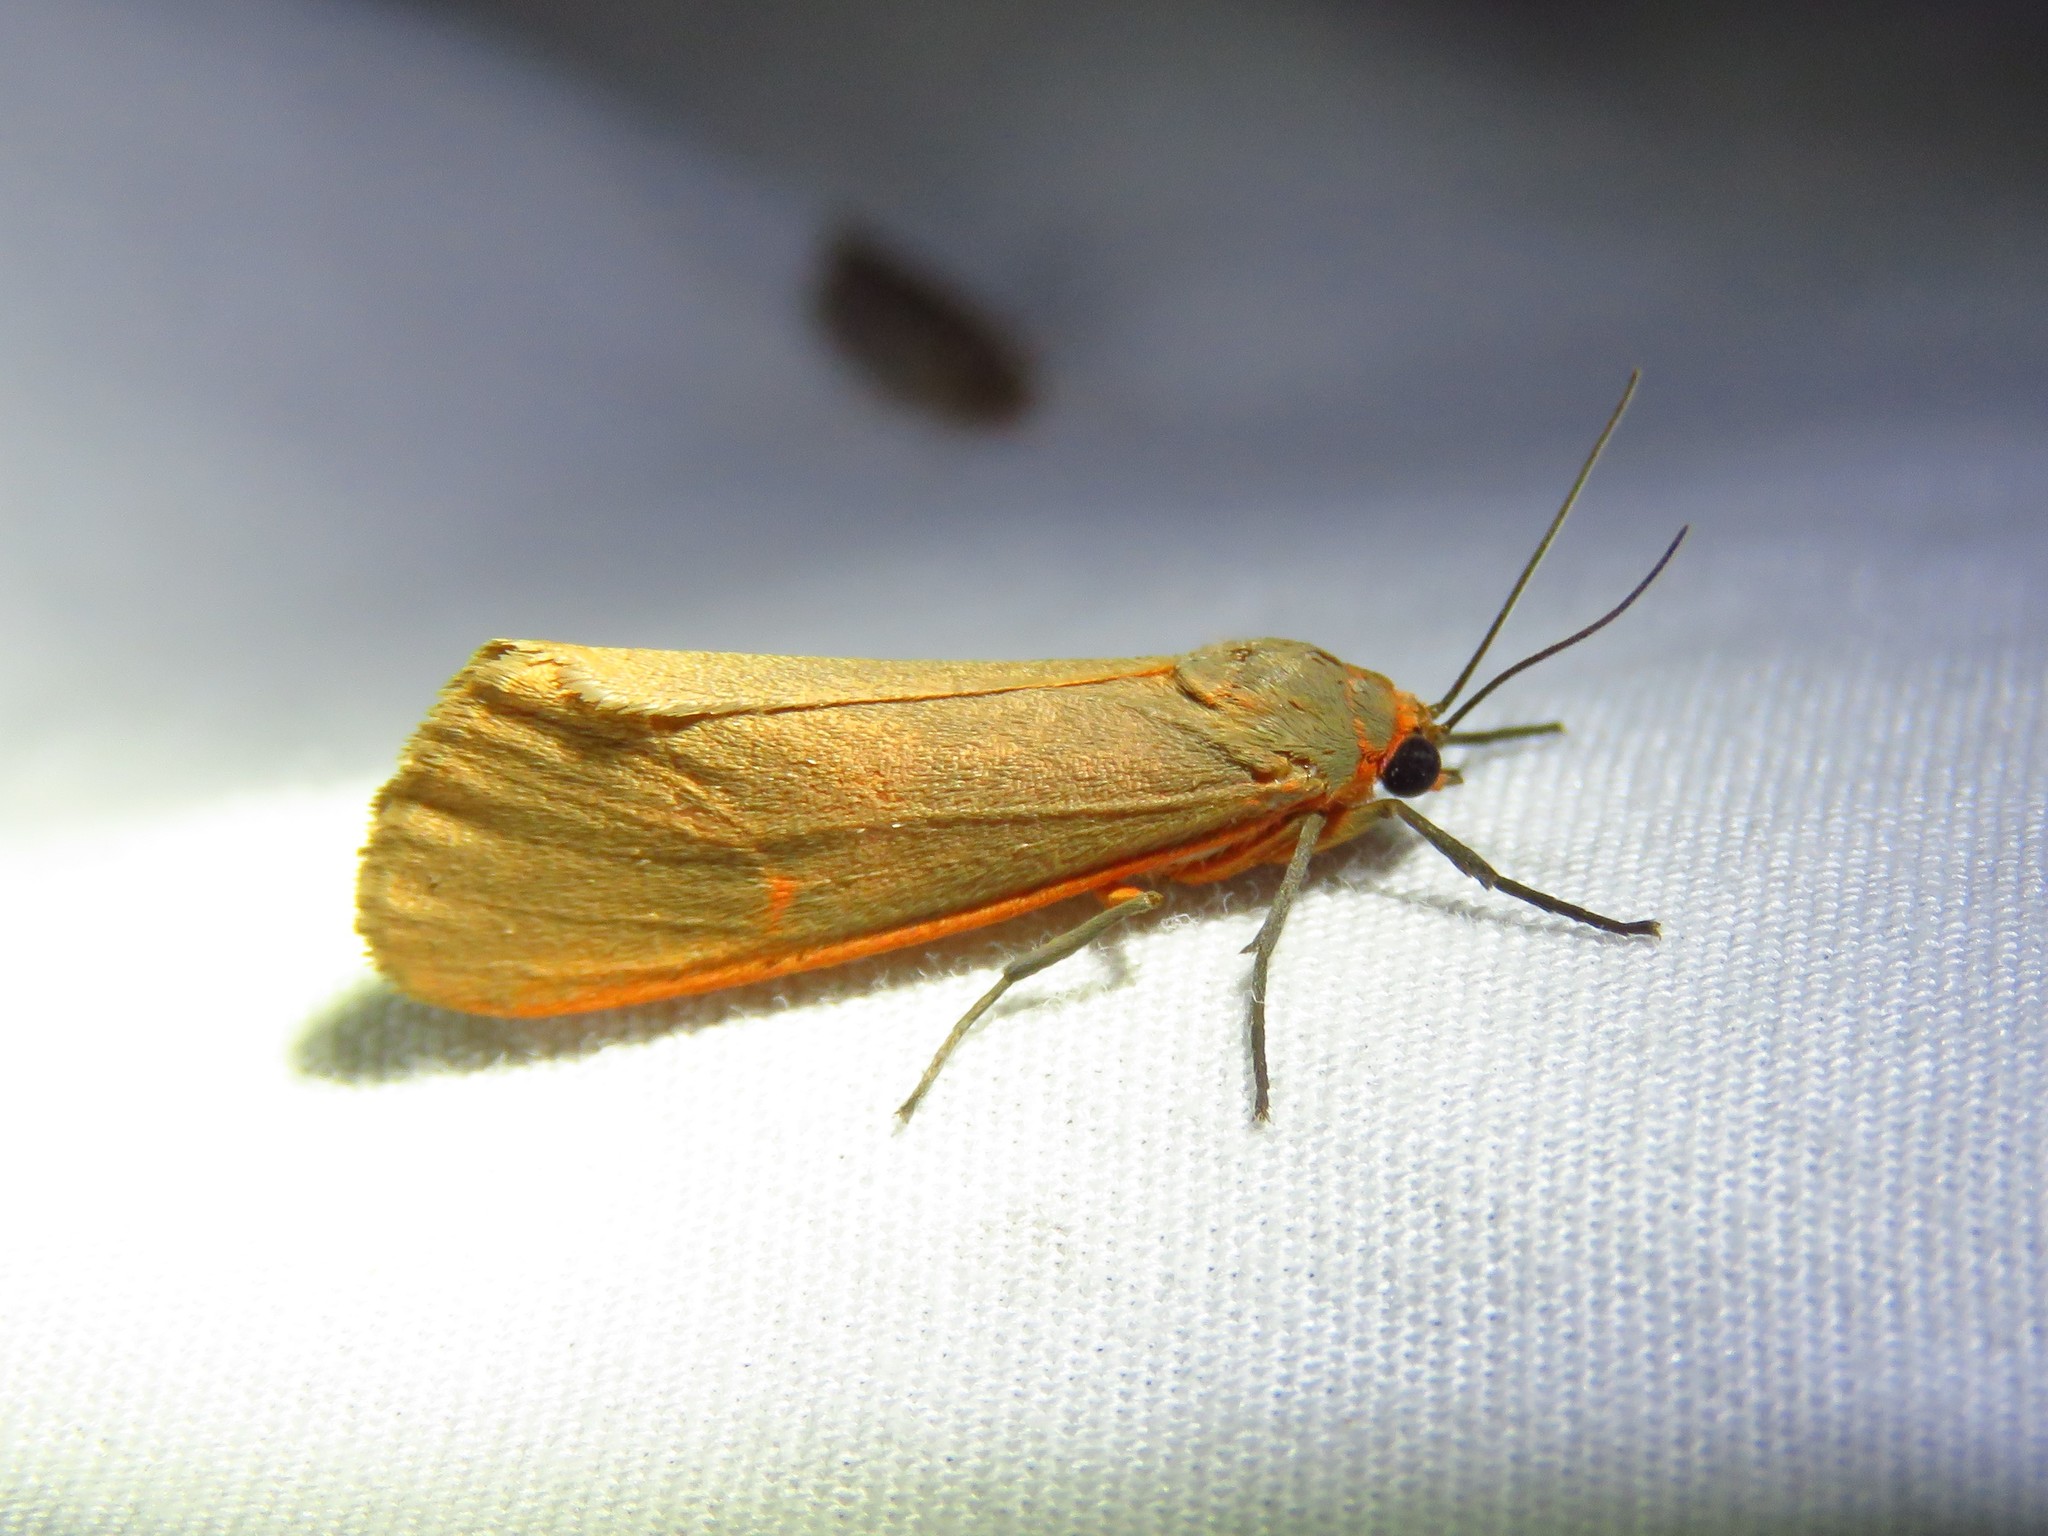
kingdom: Animalia
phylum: Arthropoda
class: Insecta
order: Lepidoptera
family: Erebidae
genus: Virbia
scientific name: Virbia costata
